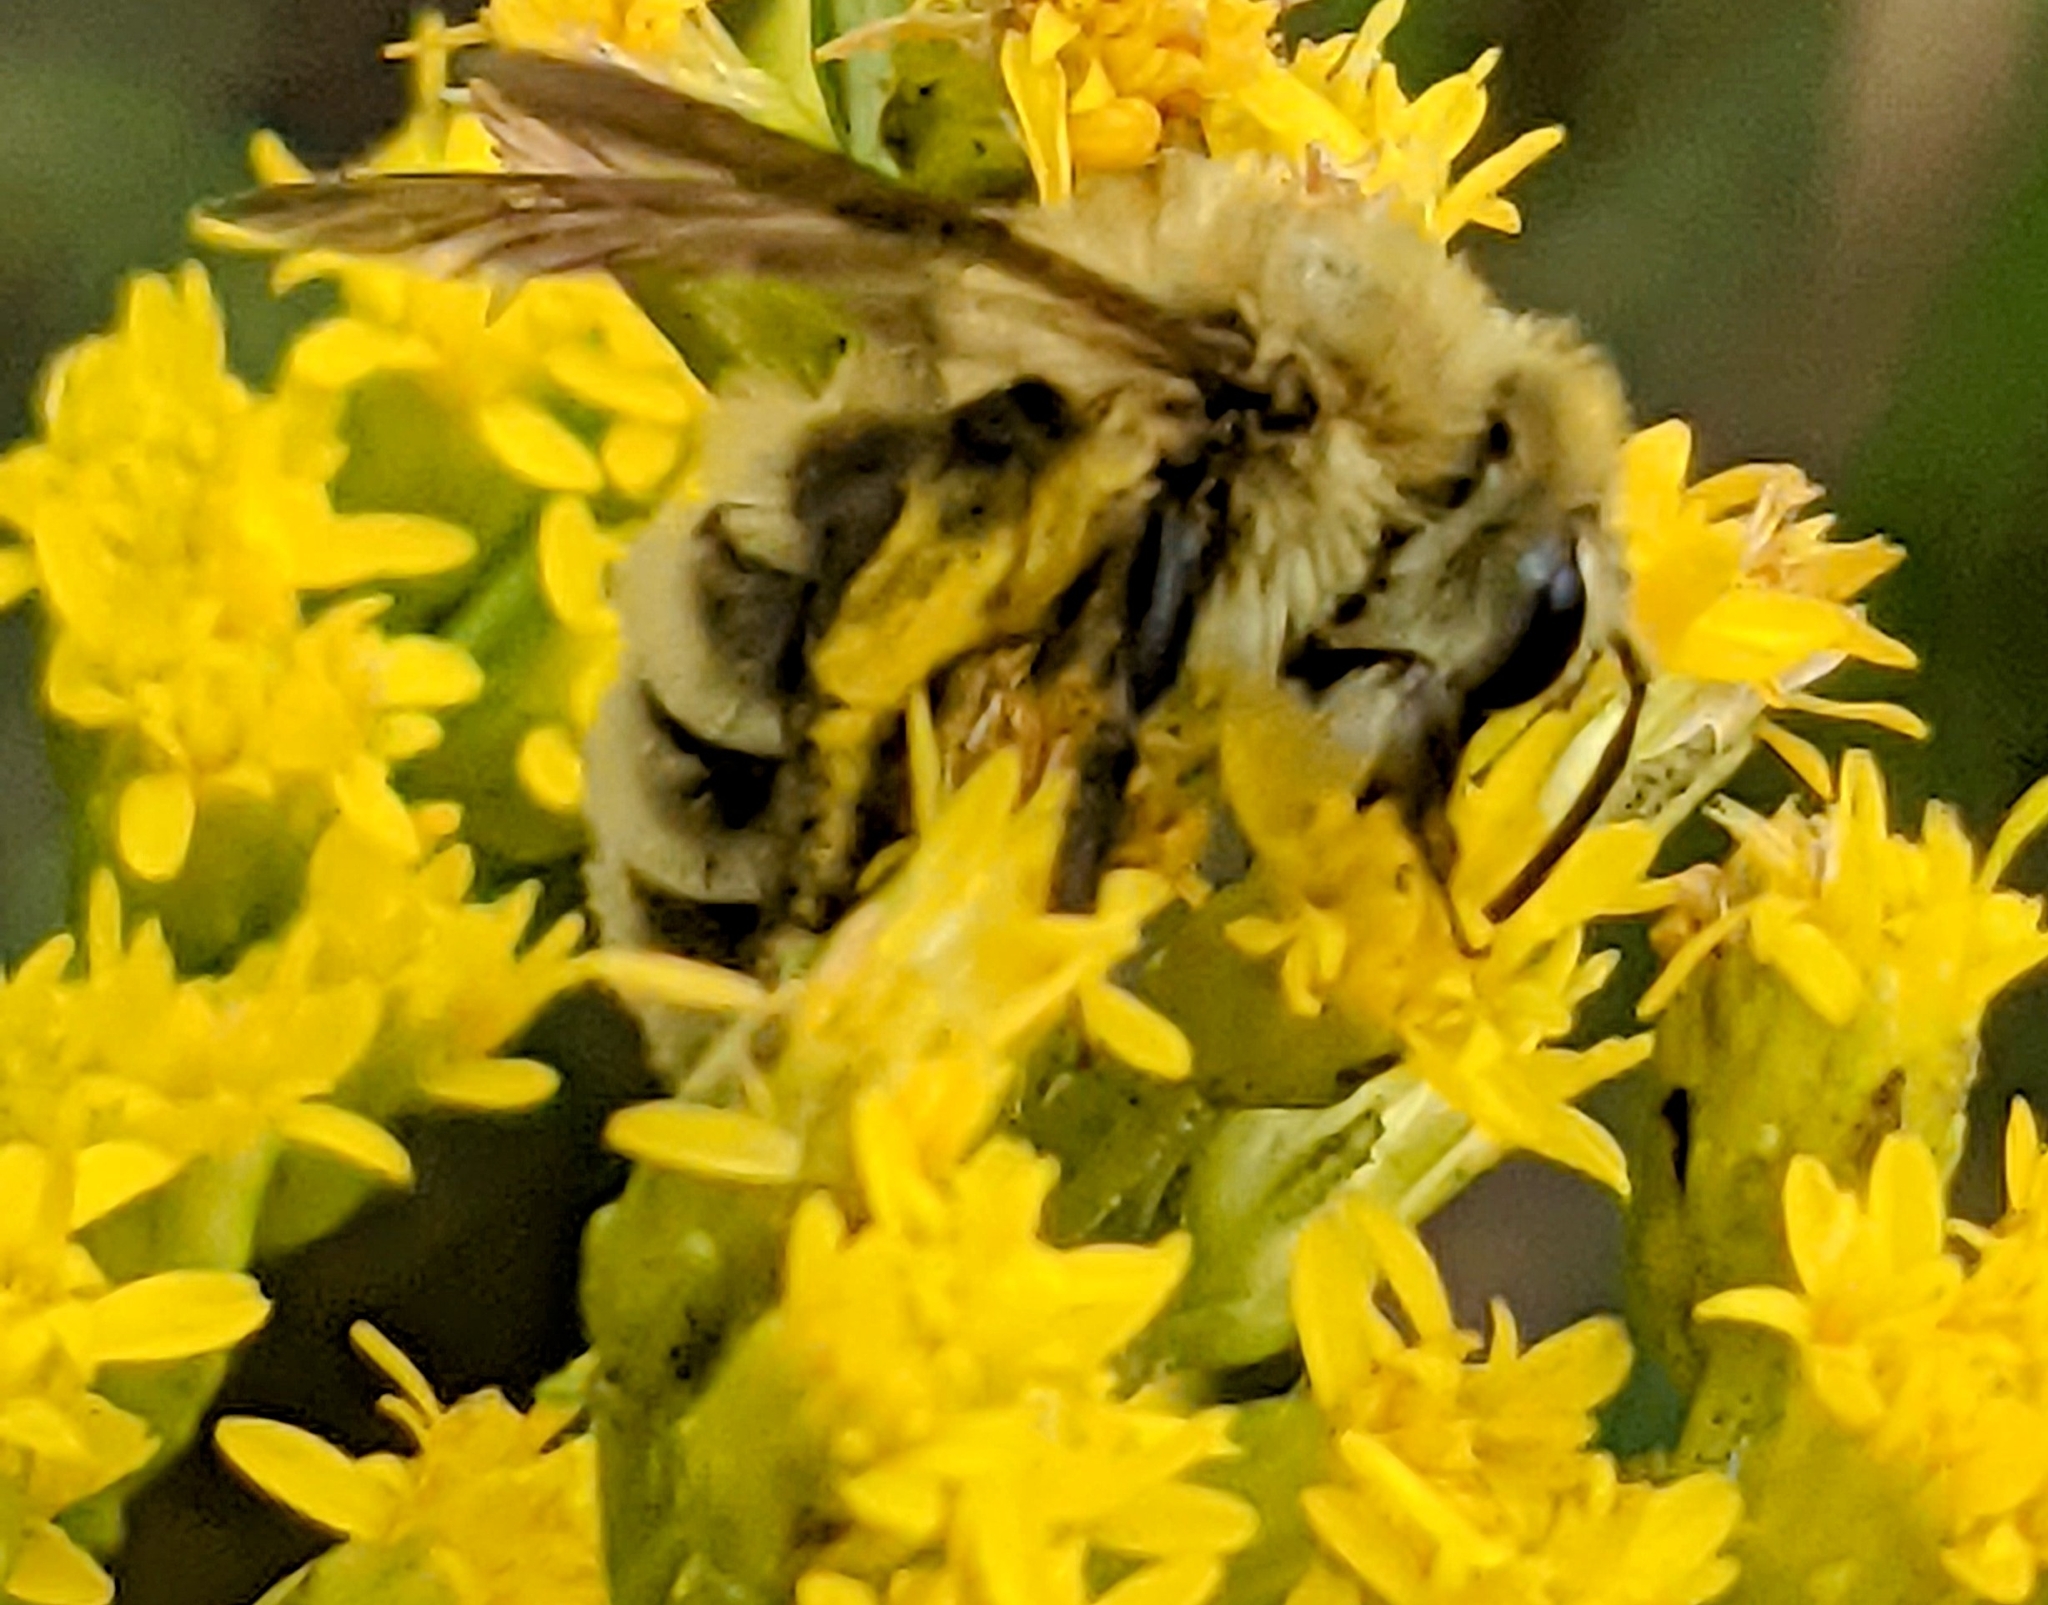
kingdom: Animalia
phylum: Arthropoda
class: Insecta
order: Hymenoptera
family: Andrenidae
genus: Andrena
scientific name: Andrena hirticincta
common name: Hairy-banded mining bee
